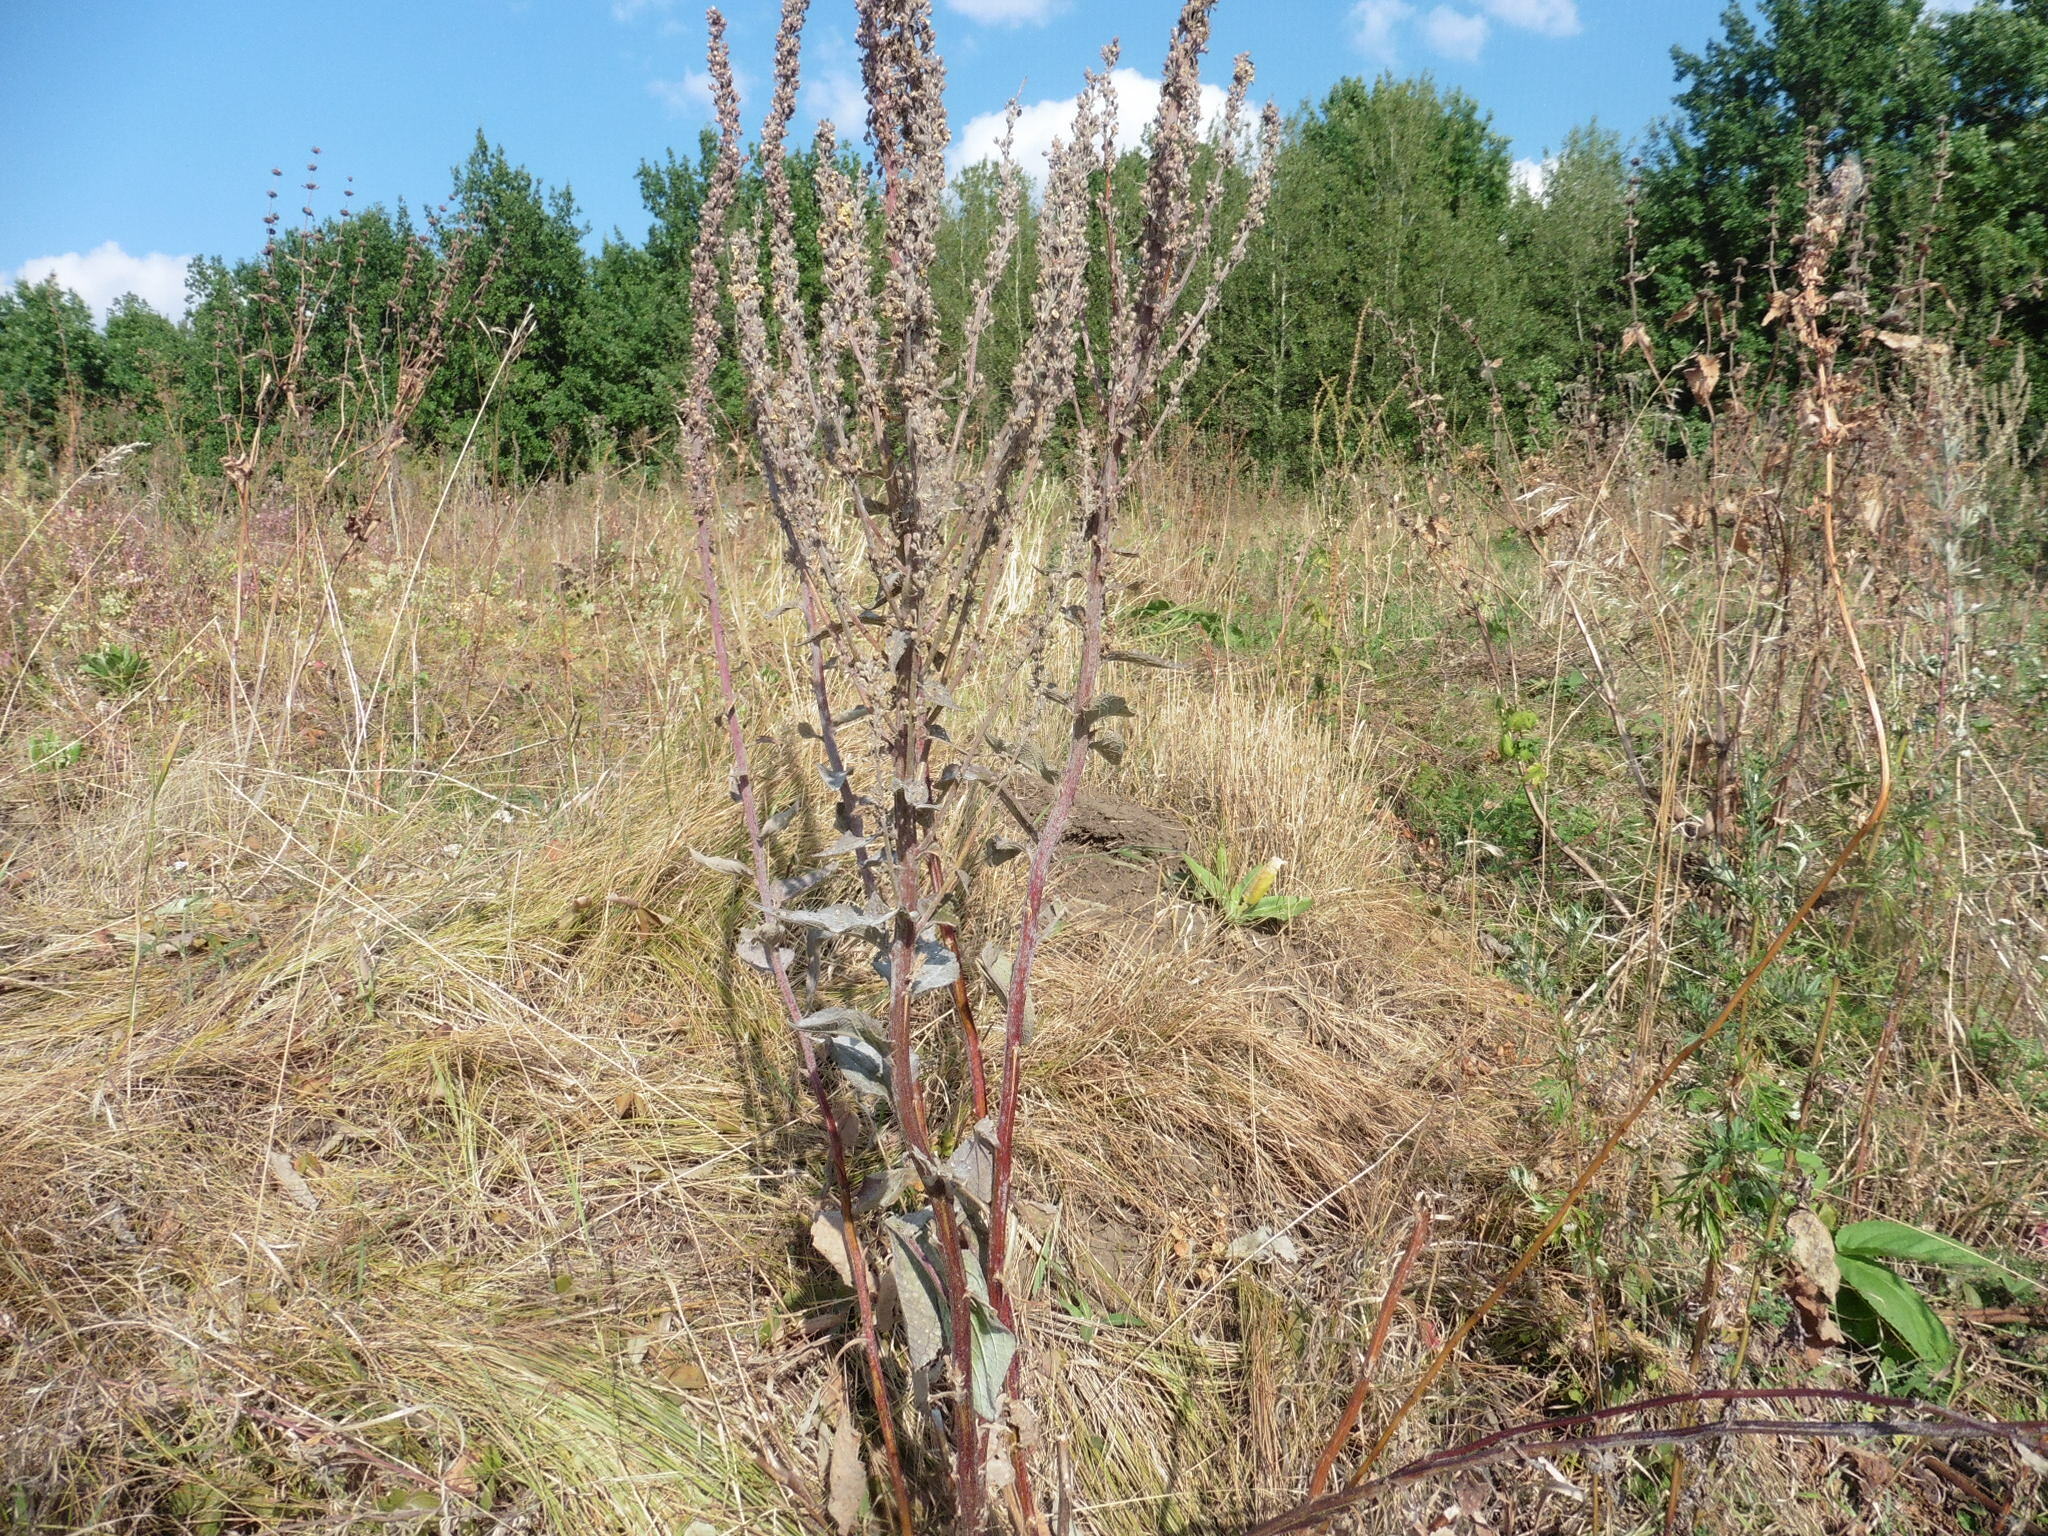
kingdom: Plantae
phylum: Tracheophyta
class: Magnoliopsida
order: Lamiales
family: Scrophulariaceae
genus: Verbascum
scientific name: Verbascum lychnitis
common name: White mullein
